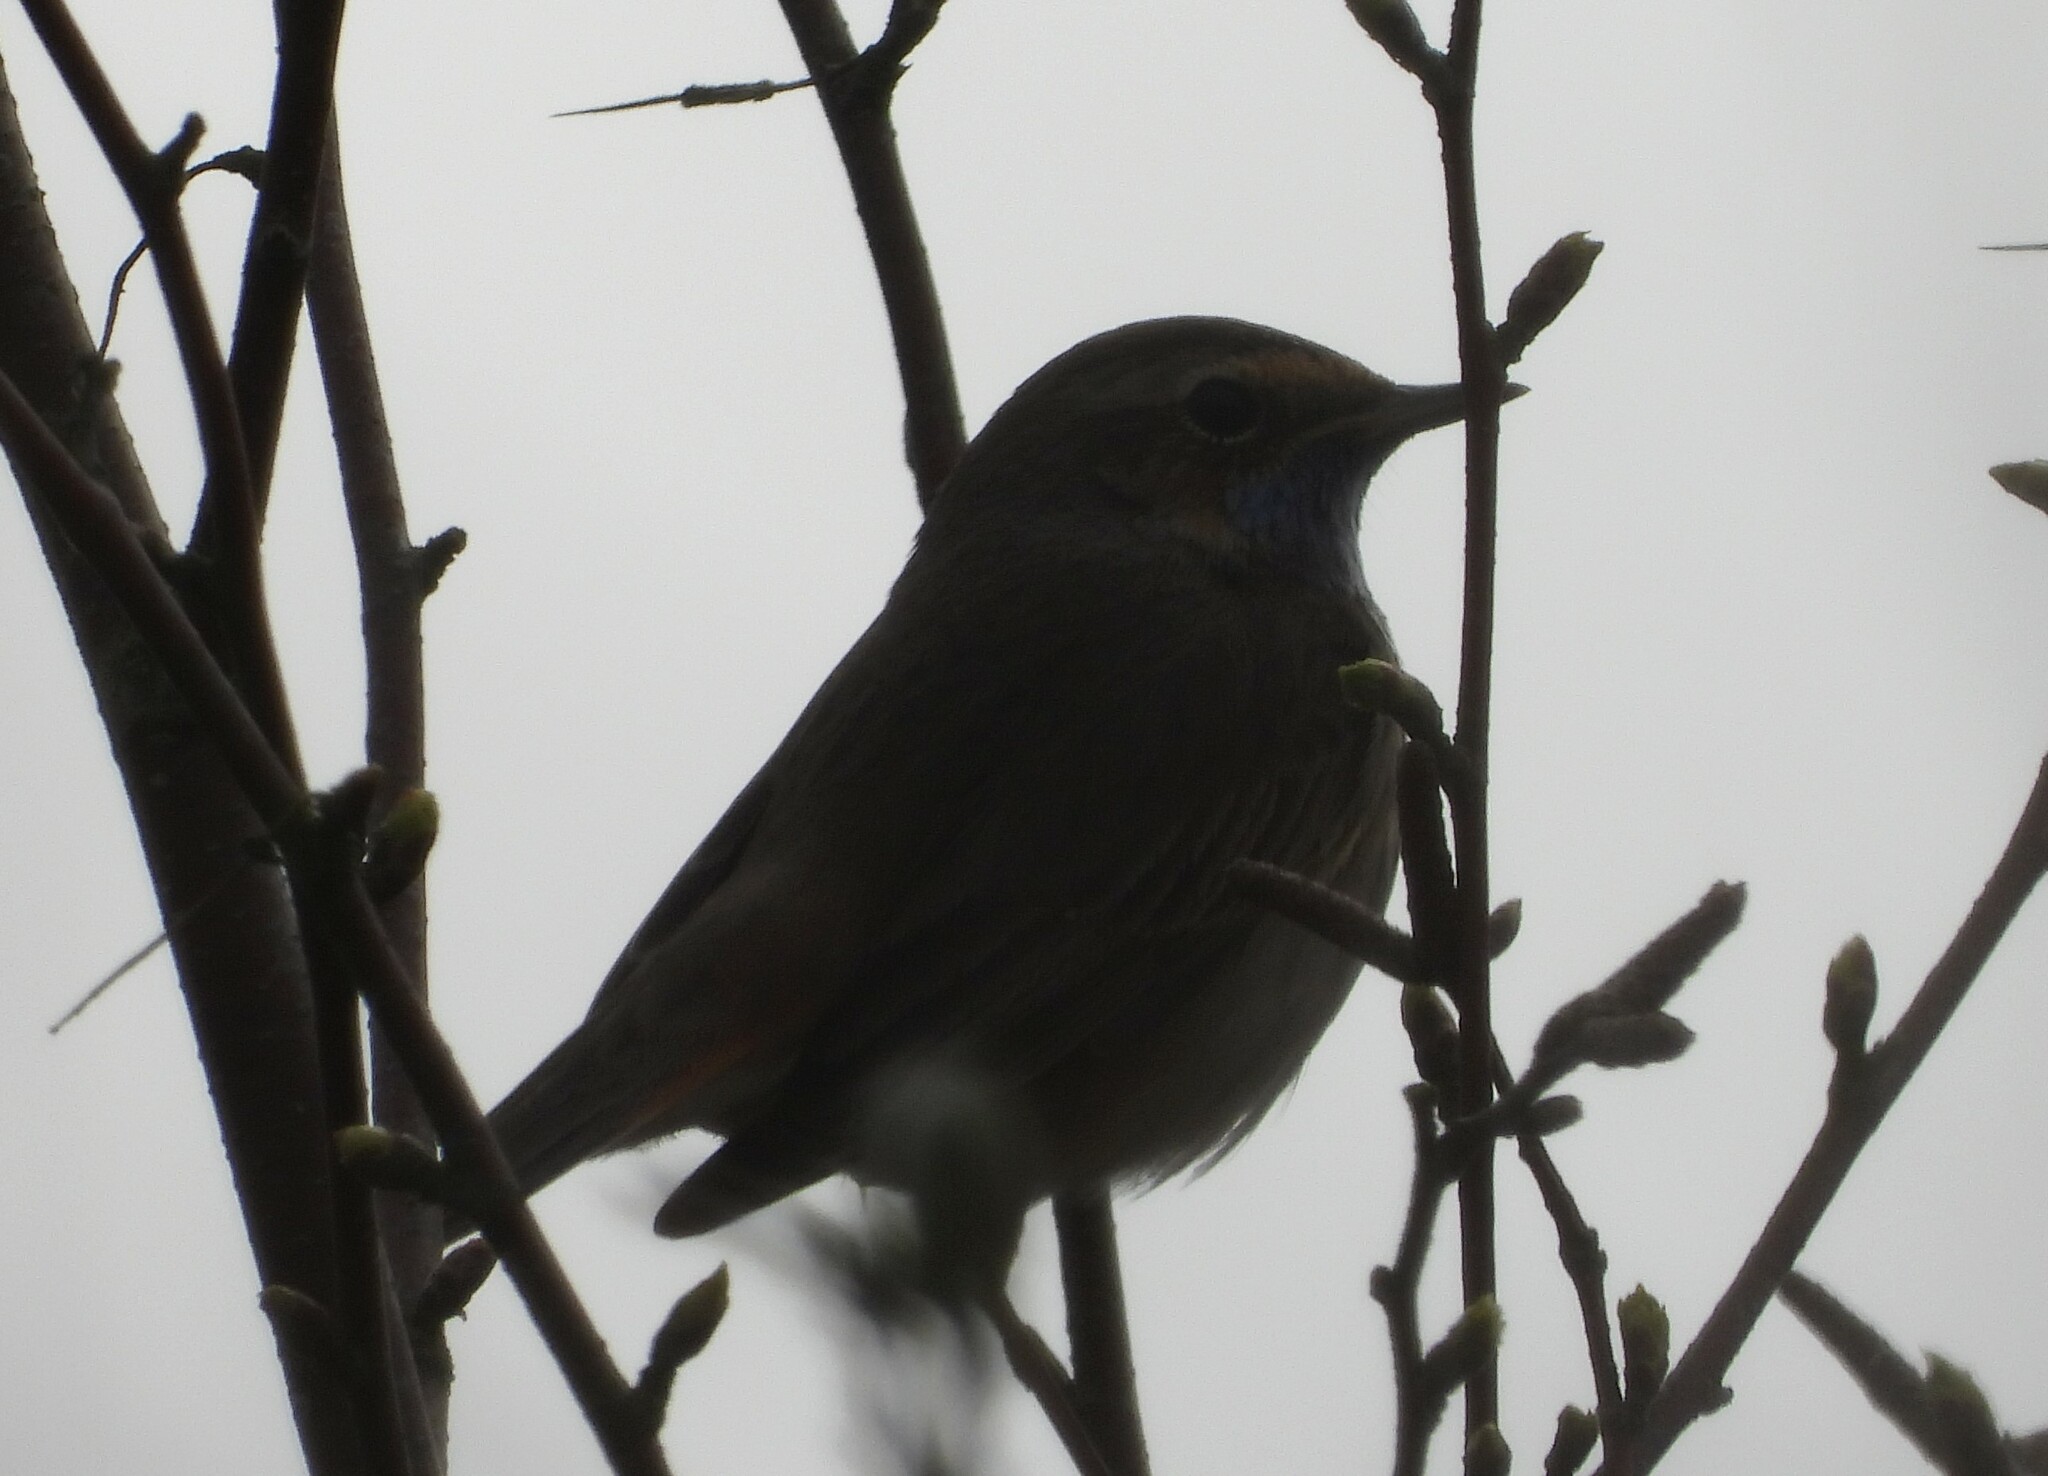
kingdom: Animalia
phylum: Chordata
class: Aves
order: Passeriformes
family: Muscicapidae
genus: Luscinia
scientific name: Luscinia svecica
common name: Bluethroat
